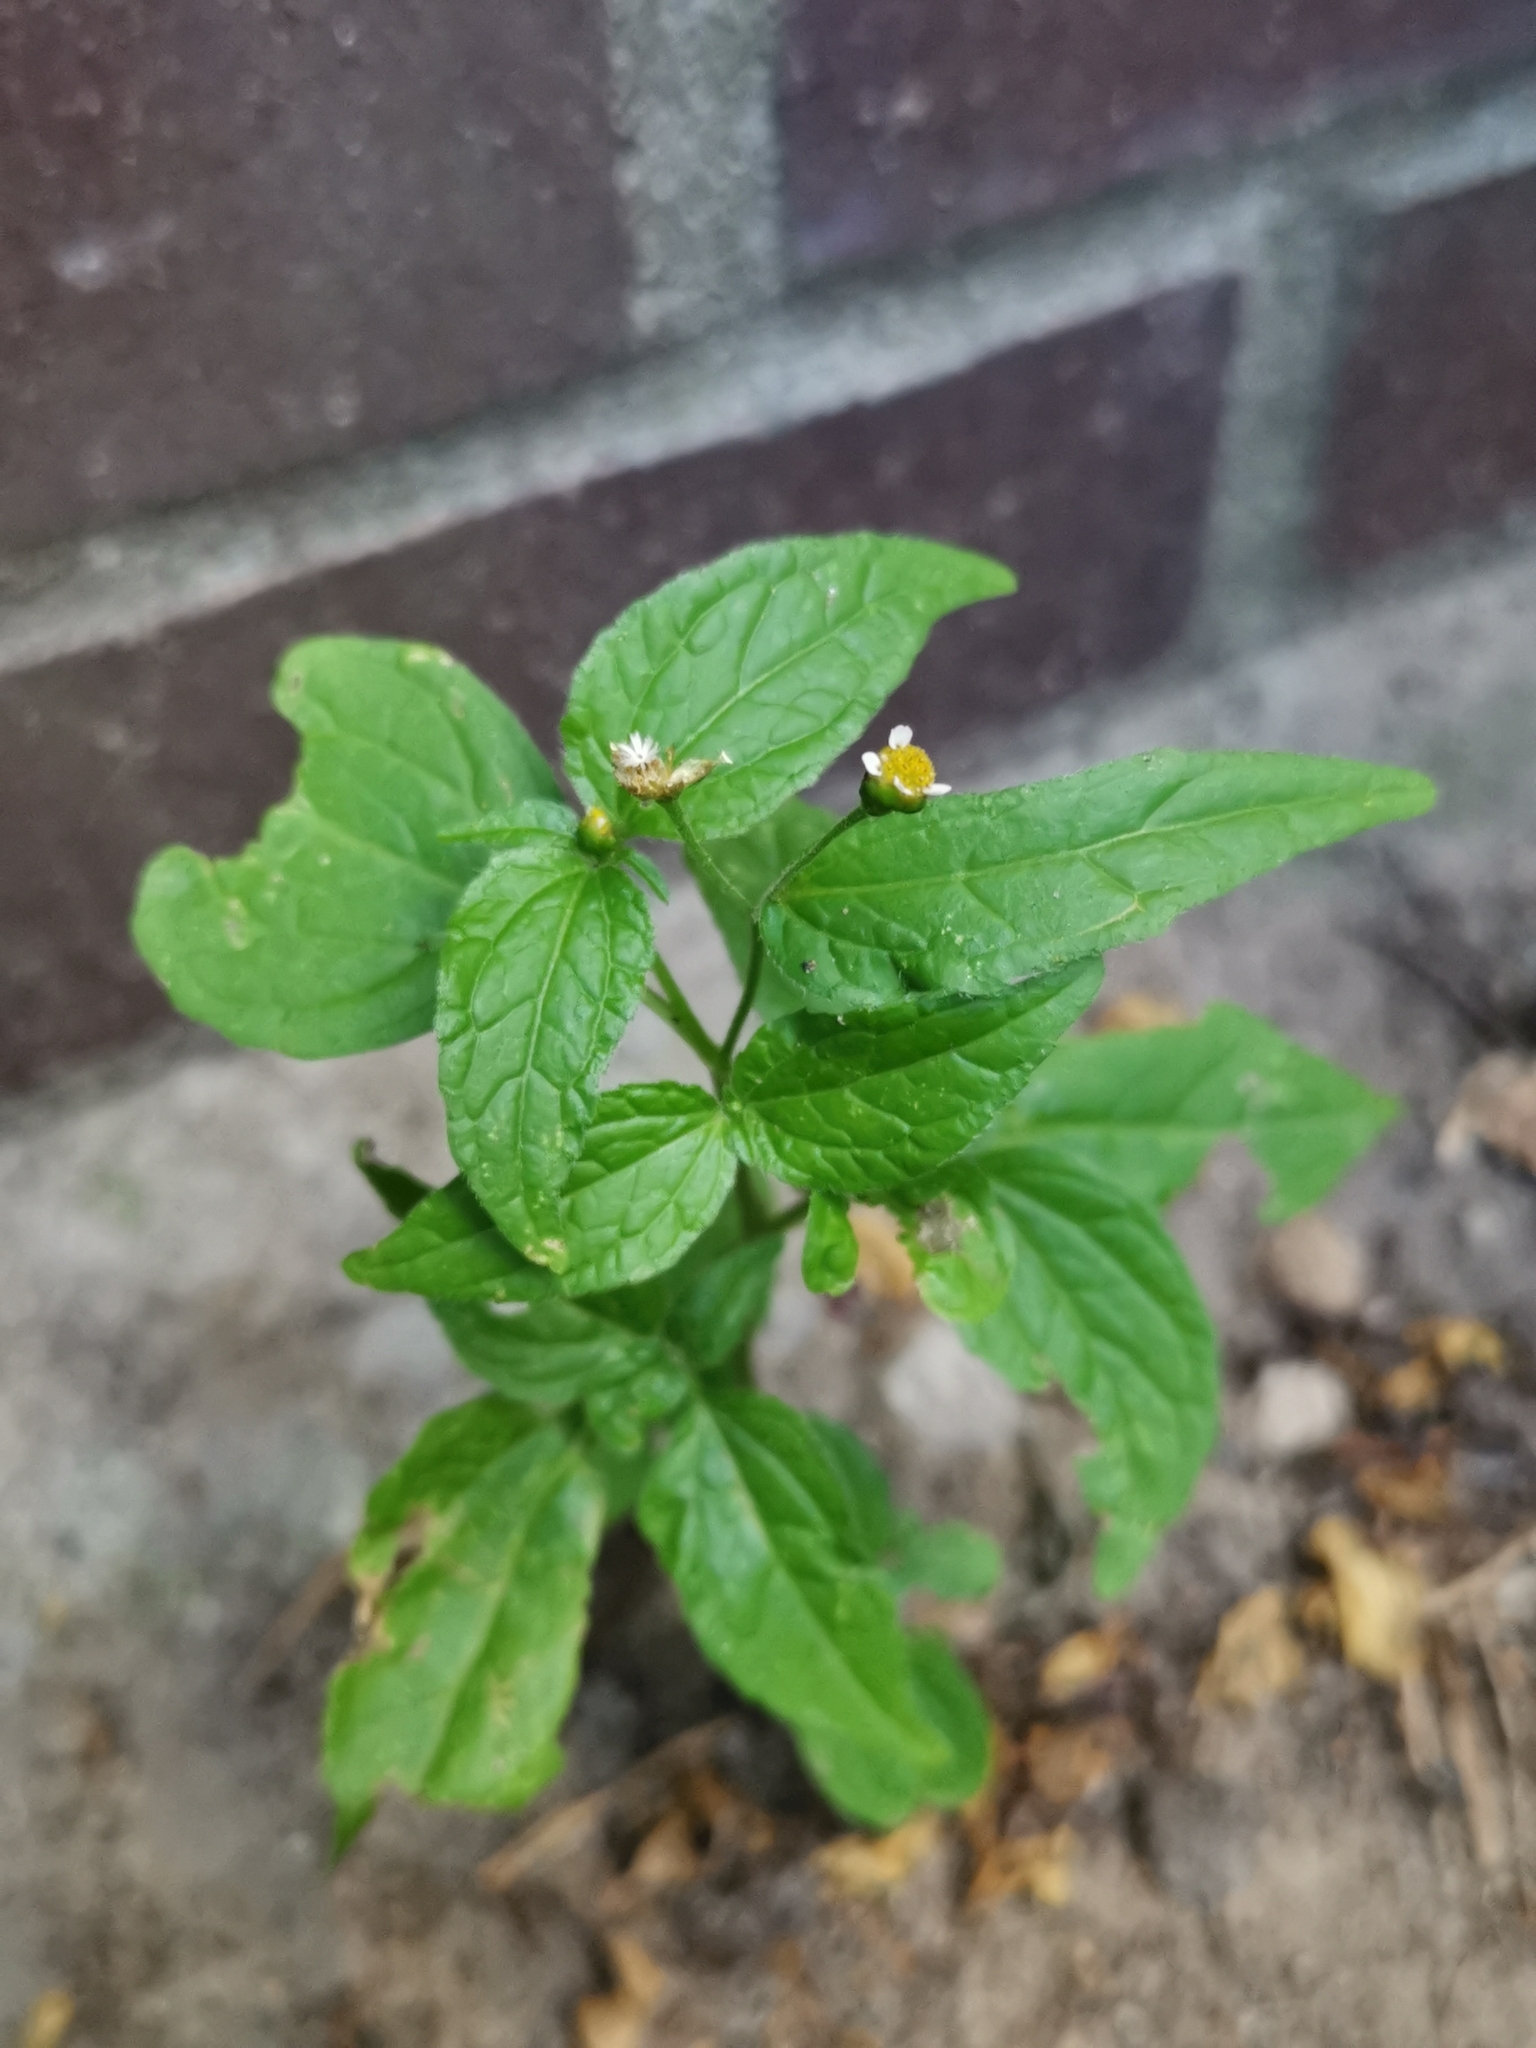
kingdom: Plantae
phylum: Tracheophyta
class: Magnoliopsida
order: Asterales
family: Asteraceae
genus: Galinsoga
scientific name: Galinsoga parviflora
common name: Gallant soldier
